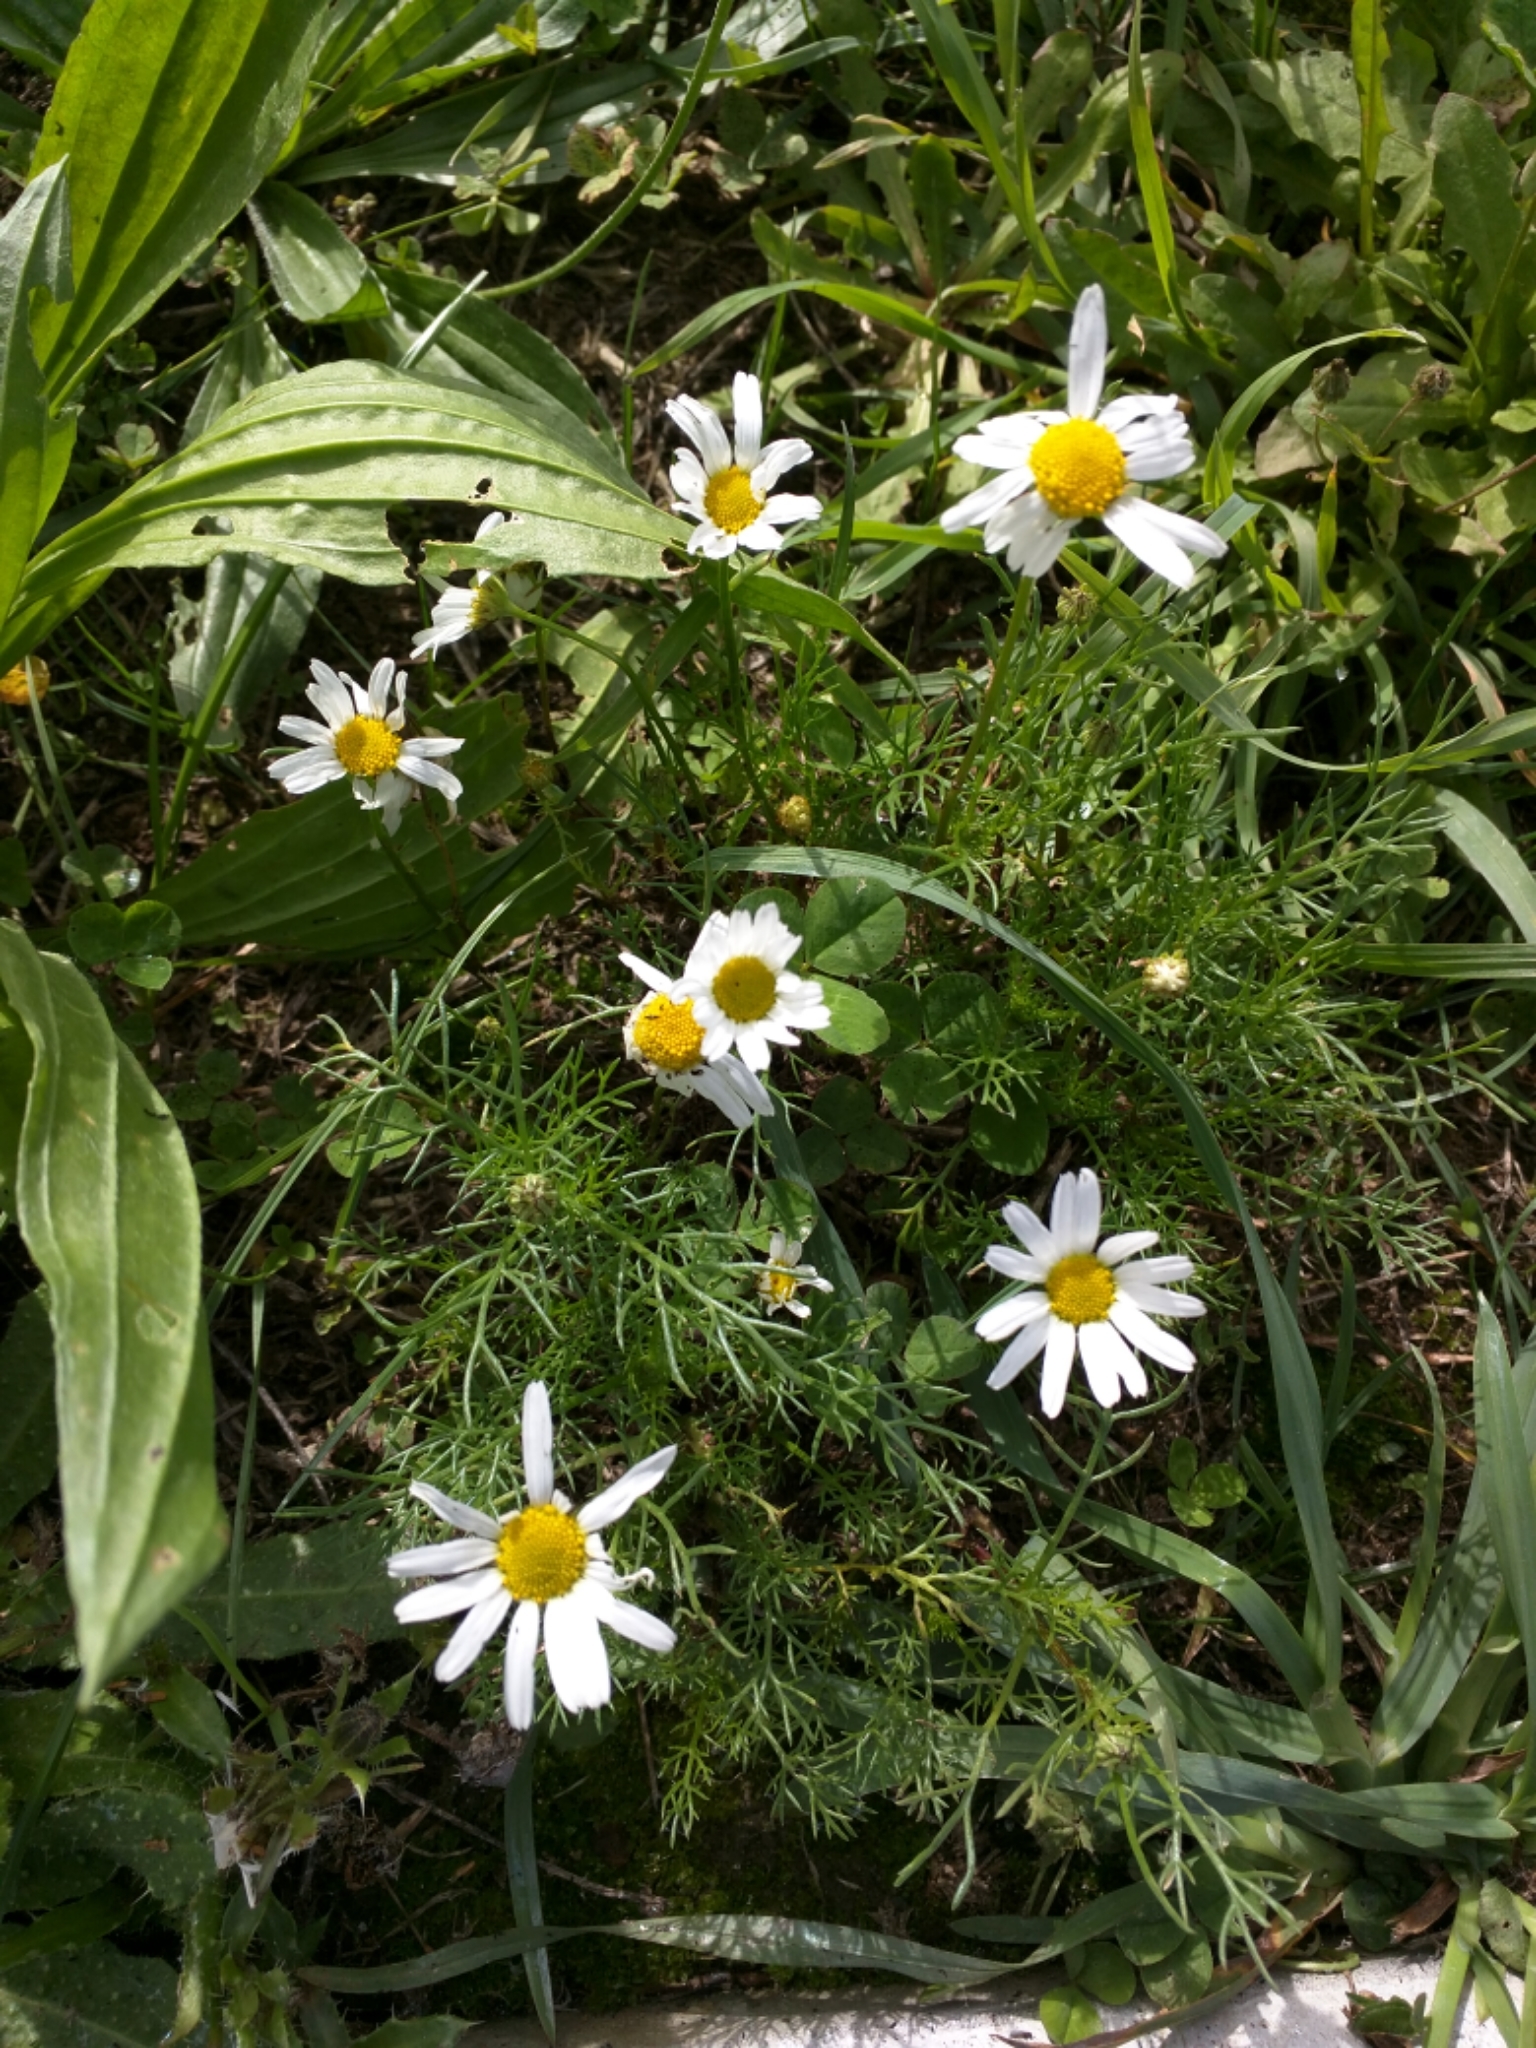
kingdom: Plantae
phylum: Tracheophyta
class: Magnoliopsida
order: Asterales
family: Asteraceae
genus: Tripleurospermum
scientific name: Tripleurospermum inodorum
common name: Scentless mayweed
